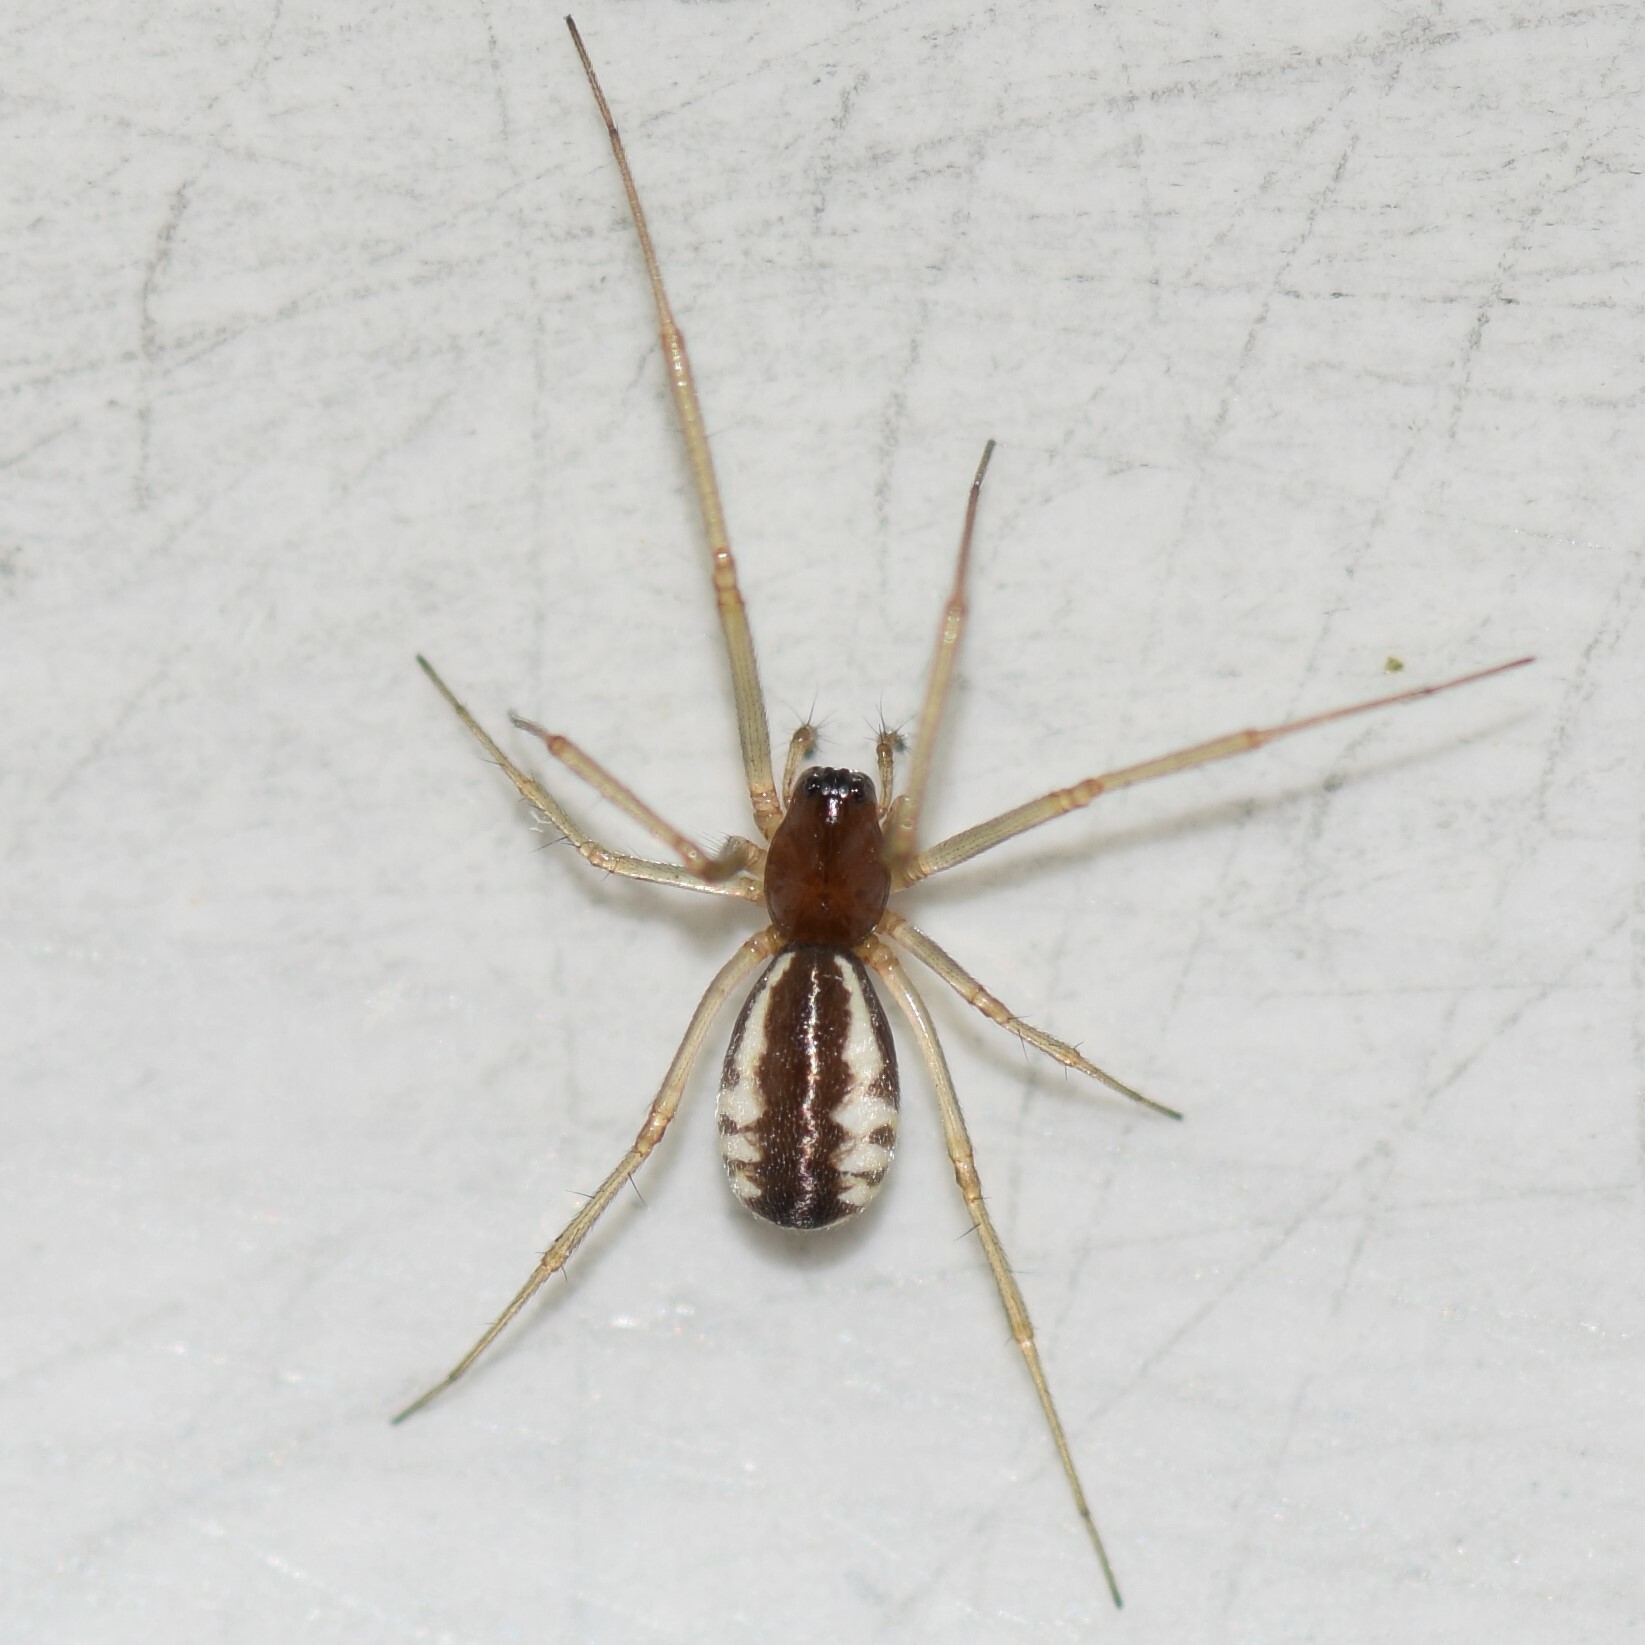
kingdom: Animalia
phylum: Arthropoda
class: Arachnida
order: Araneae
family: Linyphiidae
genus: Frontinella
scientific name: Frontinella pyramitela
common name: Bowl-and-doily spider
